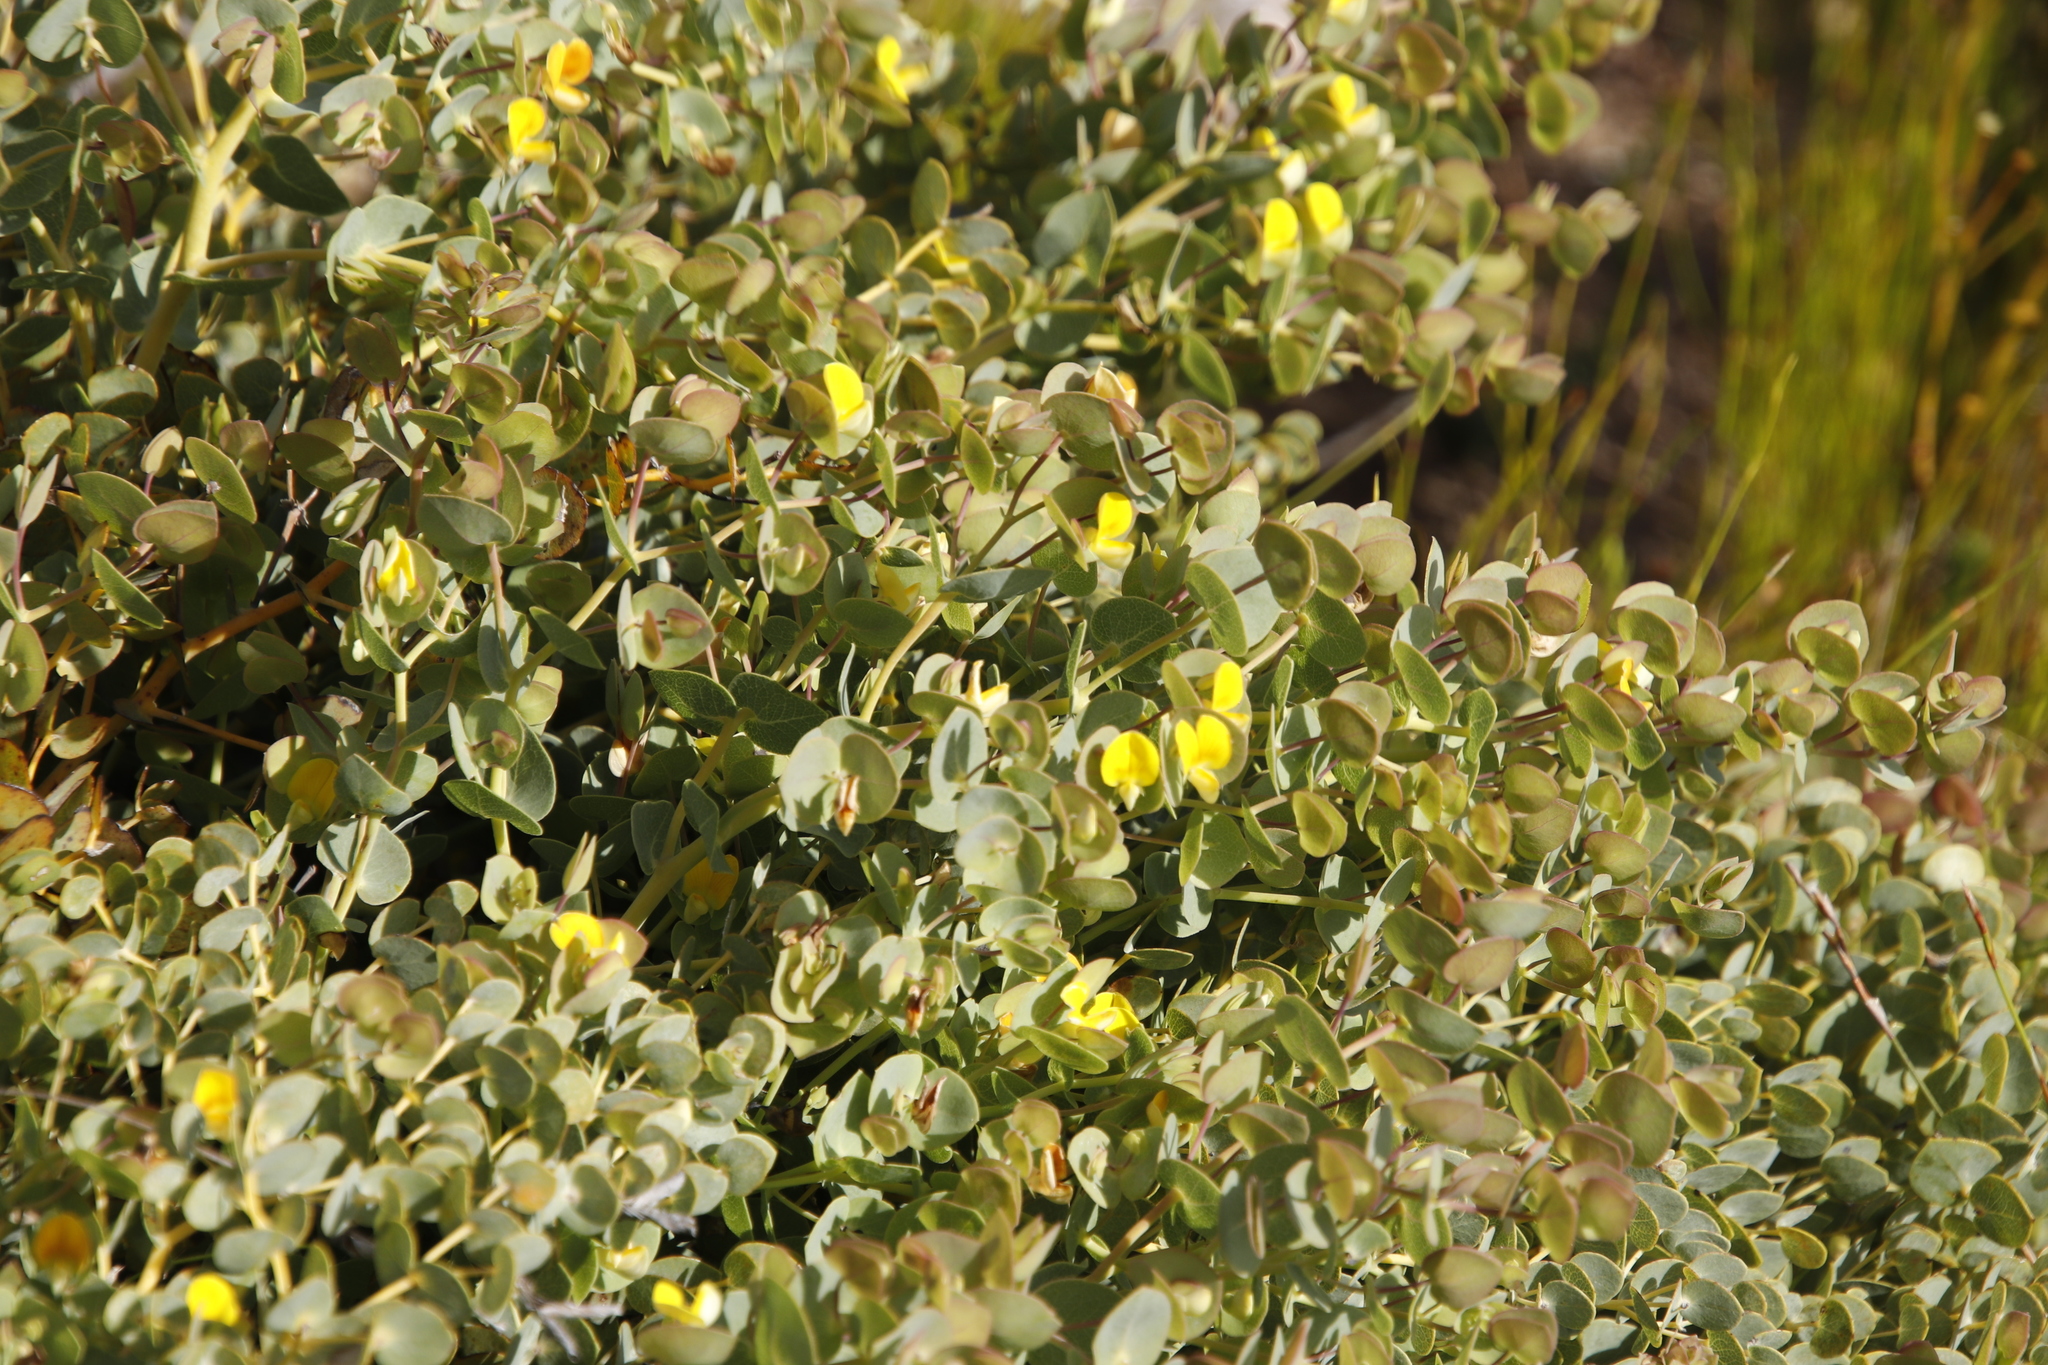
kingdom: Plantae
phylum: Tracheophyta
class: Magnoliopsida
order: Fabales
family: Fabaceae
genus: Rafnia
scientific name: Rafnia acuminata
